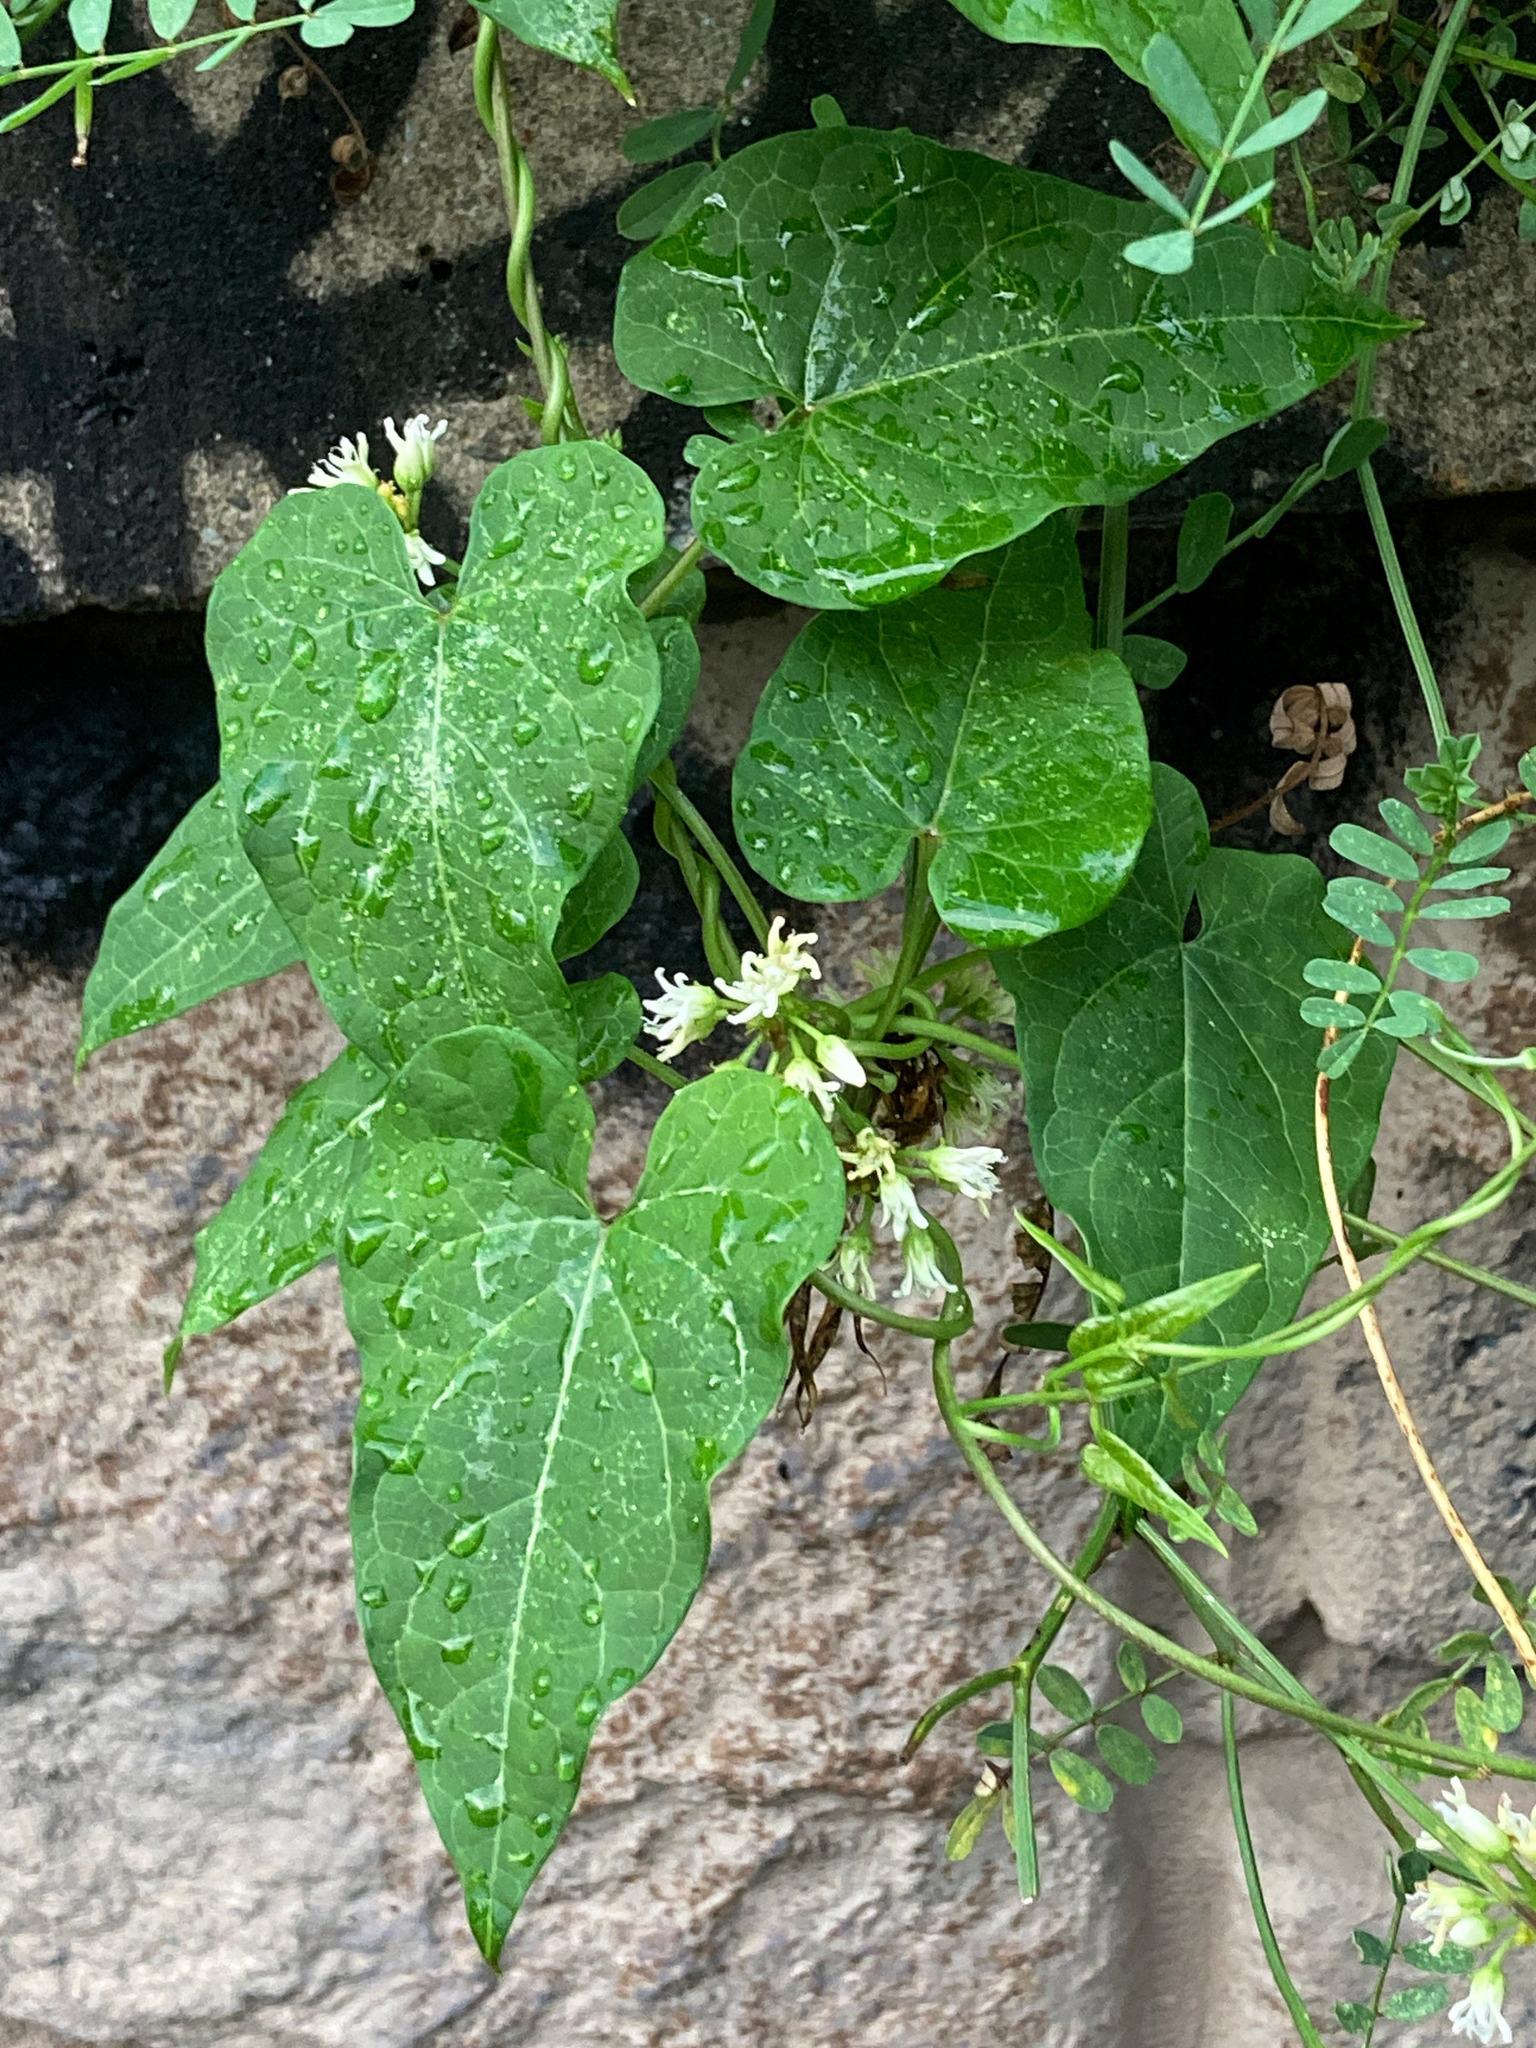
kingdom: Plantae
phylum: Tracheophyta
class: Magnoliopsida
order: Gentianales
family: Apocynaceae
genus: Cynanchum
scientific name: Cynanchum laeve
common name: Sandvine
